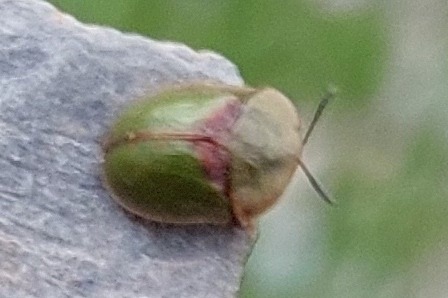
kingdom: Animalia
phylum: Arthropoda
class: Insecta
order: Coleoptera
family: Chrysomelidae
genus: Cassida
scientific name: Cassida leucanthemi
